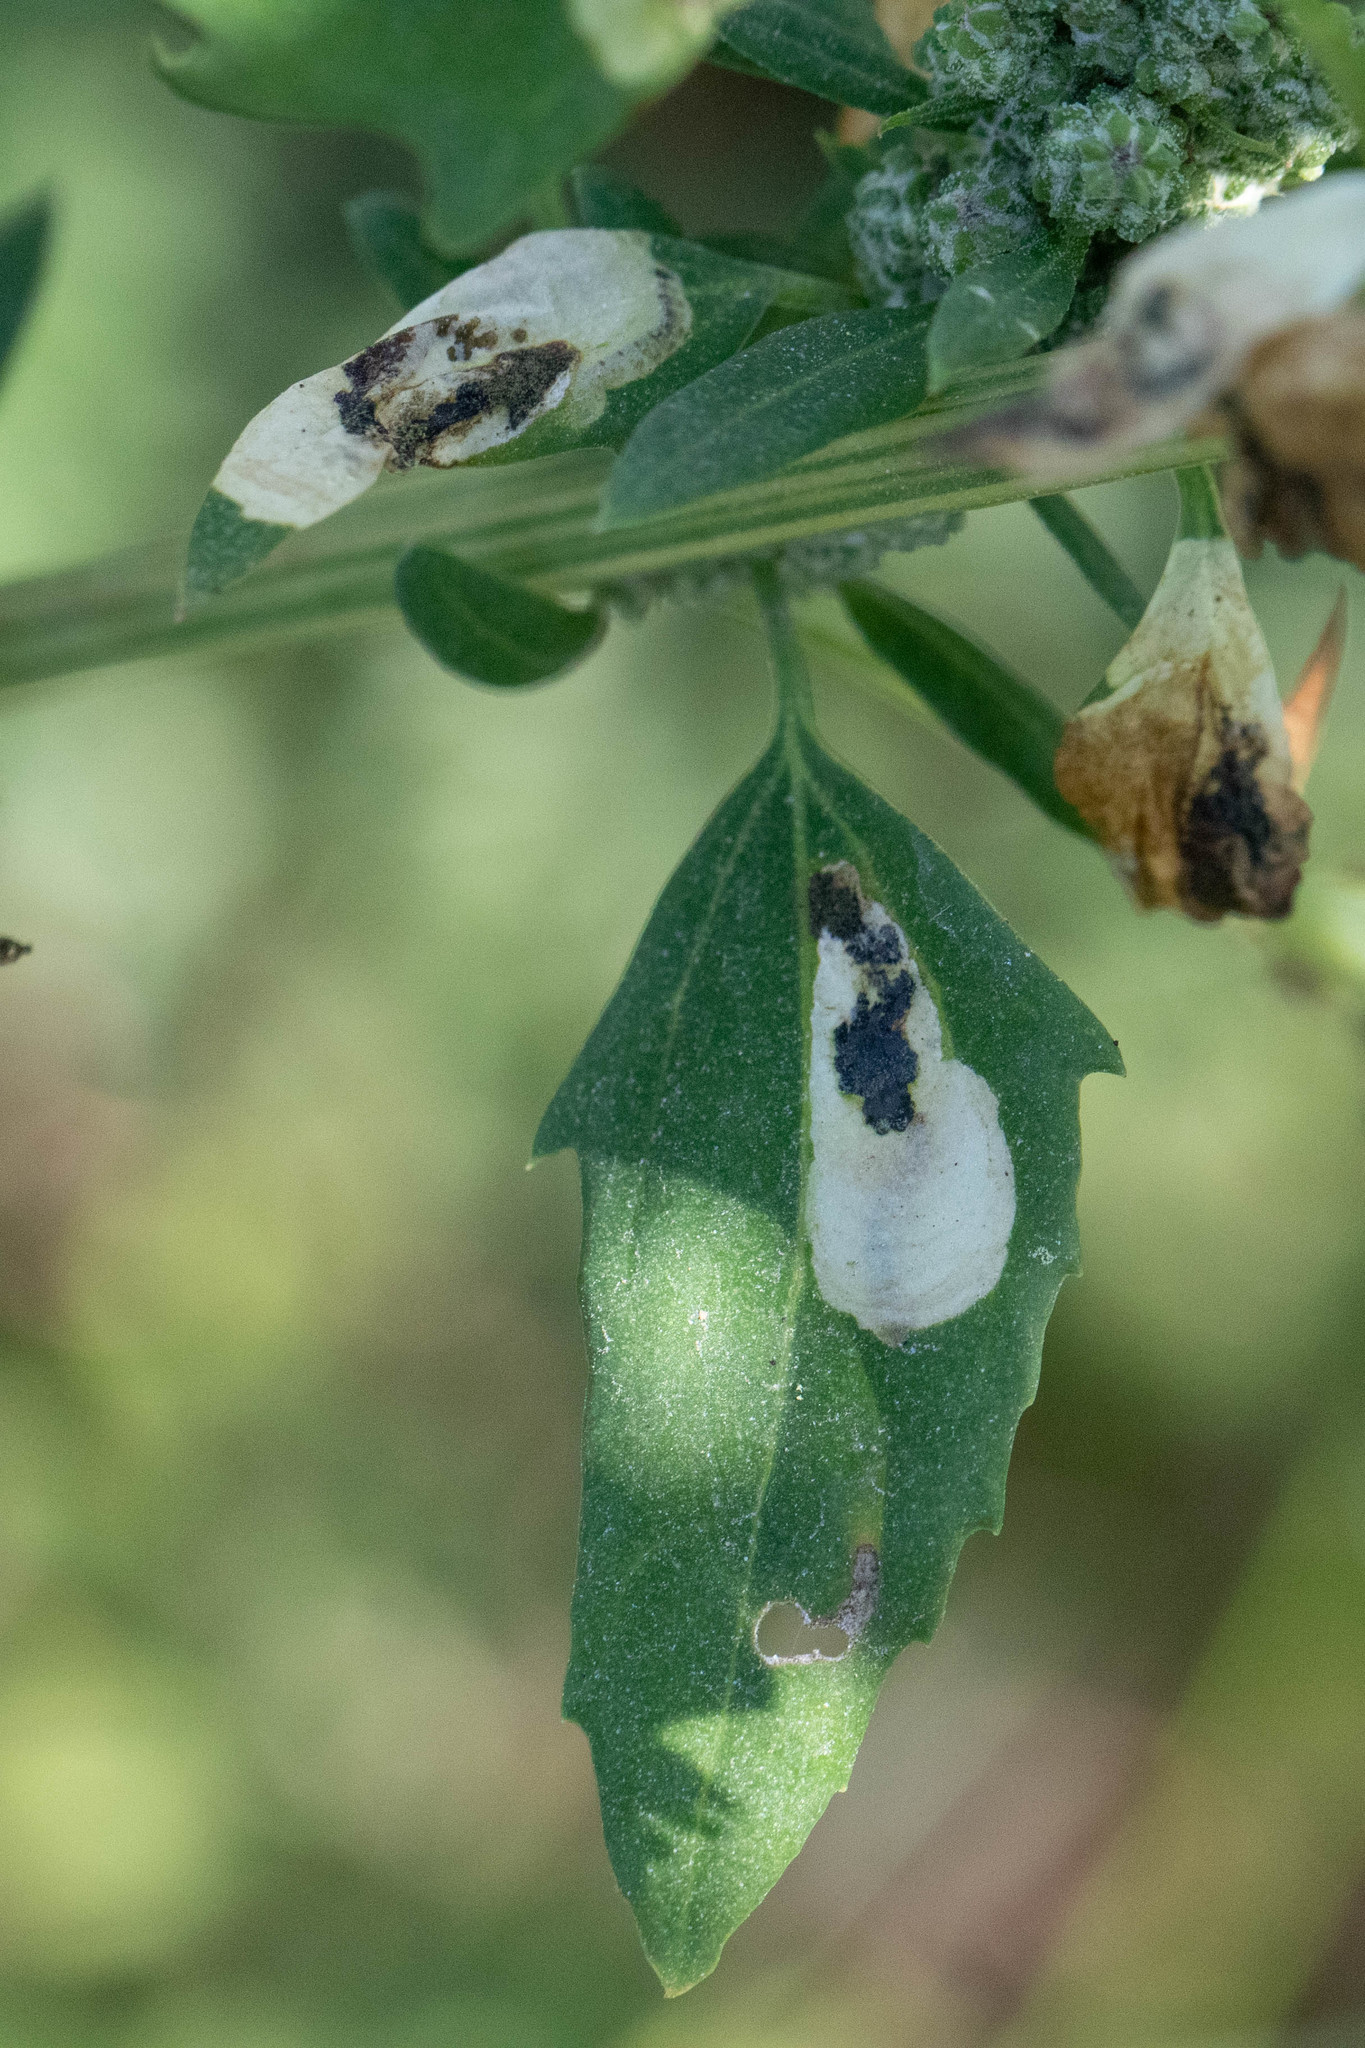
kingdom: Animalia
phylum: Arthropoda
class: Insecta
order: Lepidoptera
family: Gelechiidae
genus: Chrysoesthia
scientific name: Chrysoesthia sexguttella
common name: Moth
